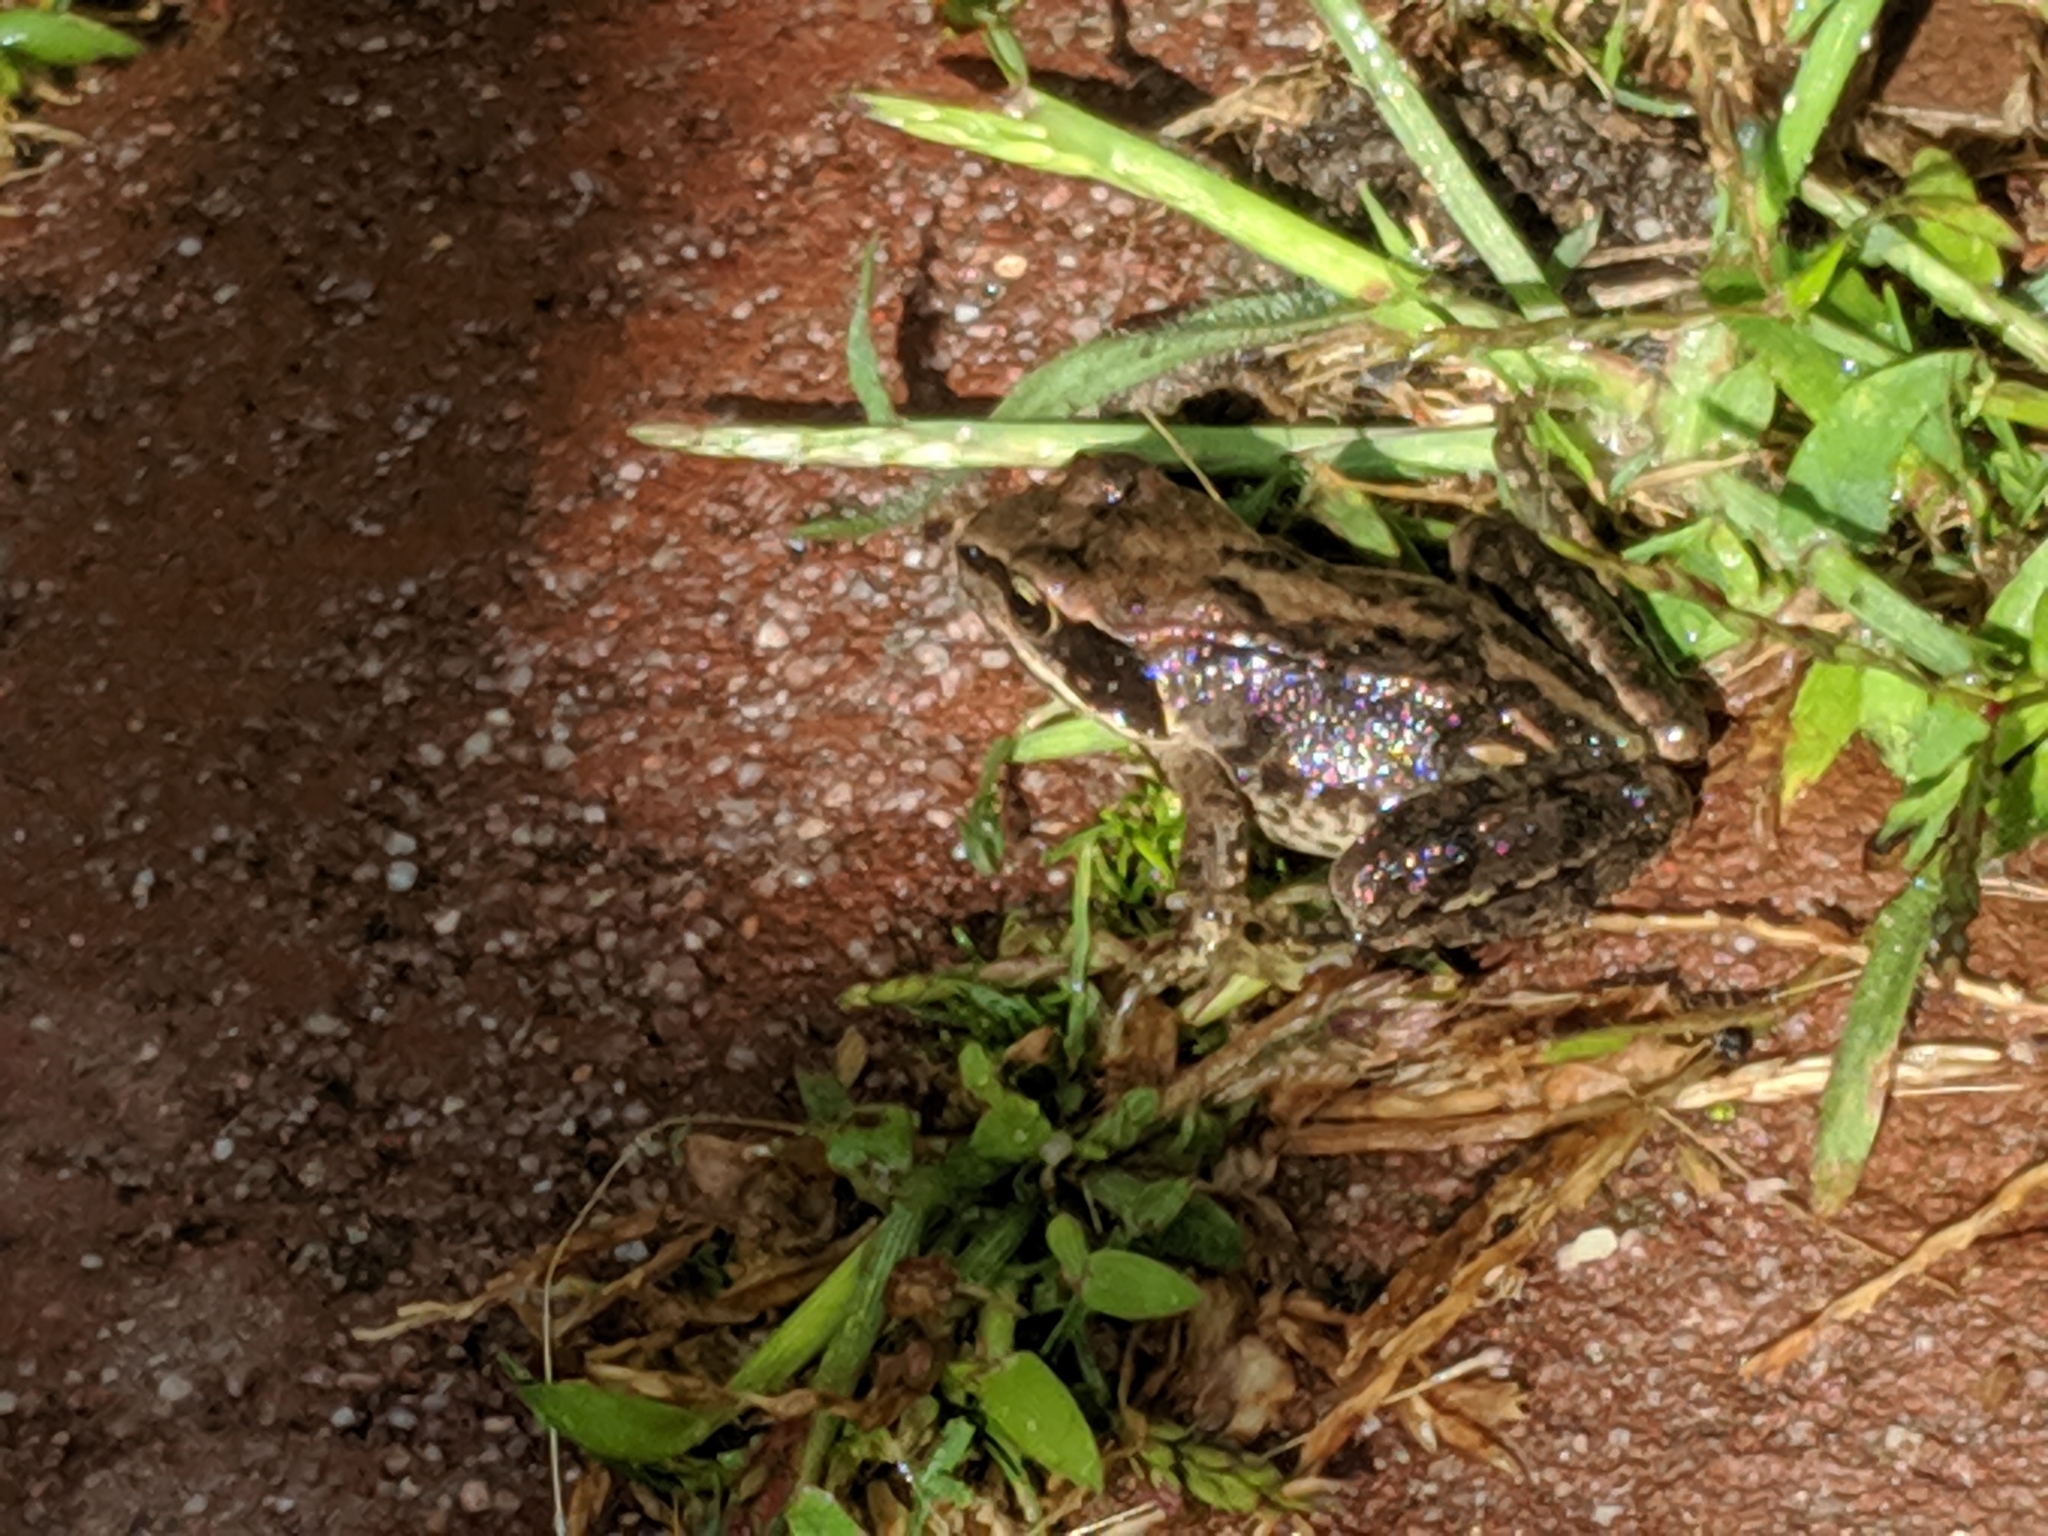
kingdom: Animalia
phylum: Chordata
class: Amphibia
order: Anura
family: Ranidae
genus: Rana
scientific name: Rana temporaria
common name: Common frog
